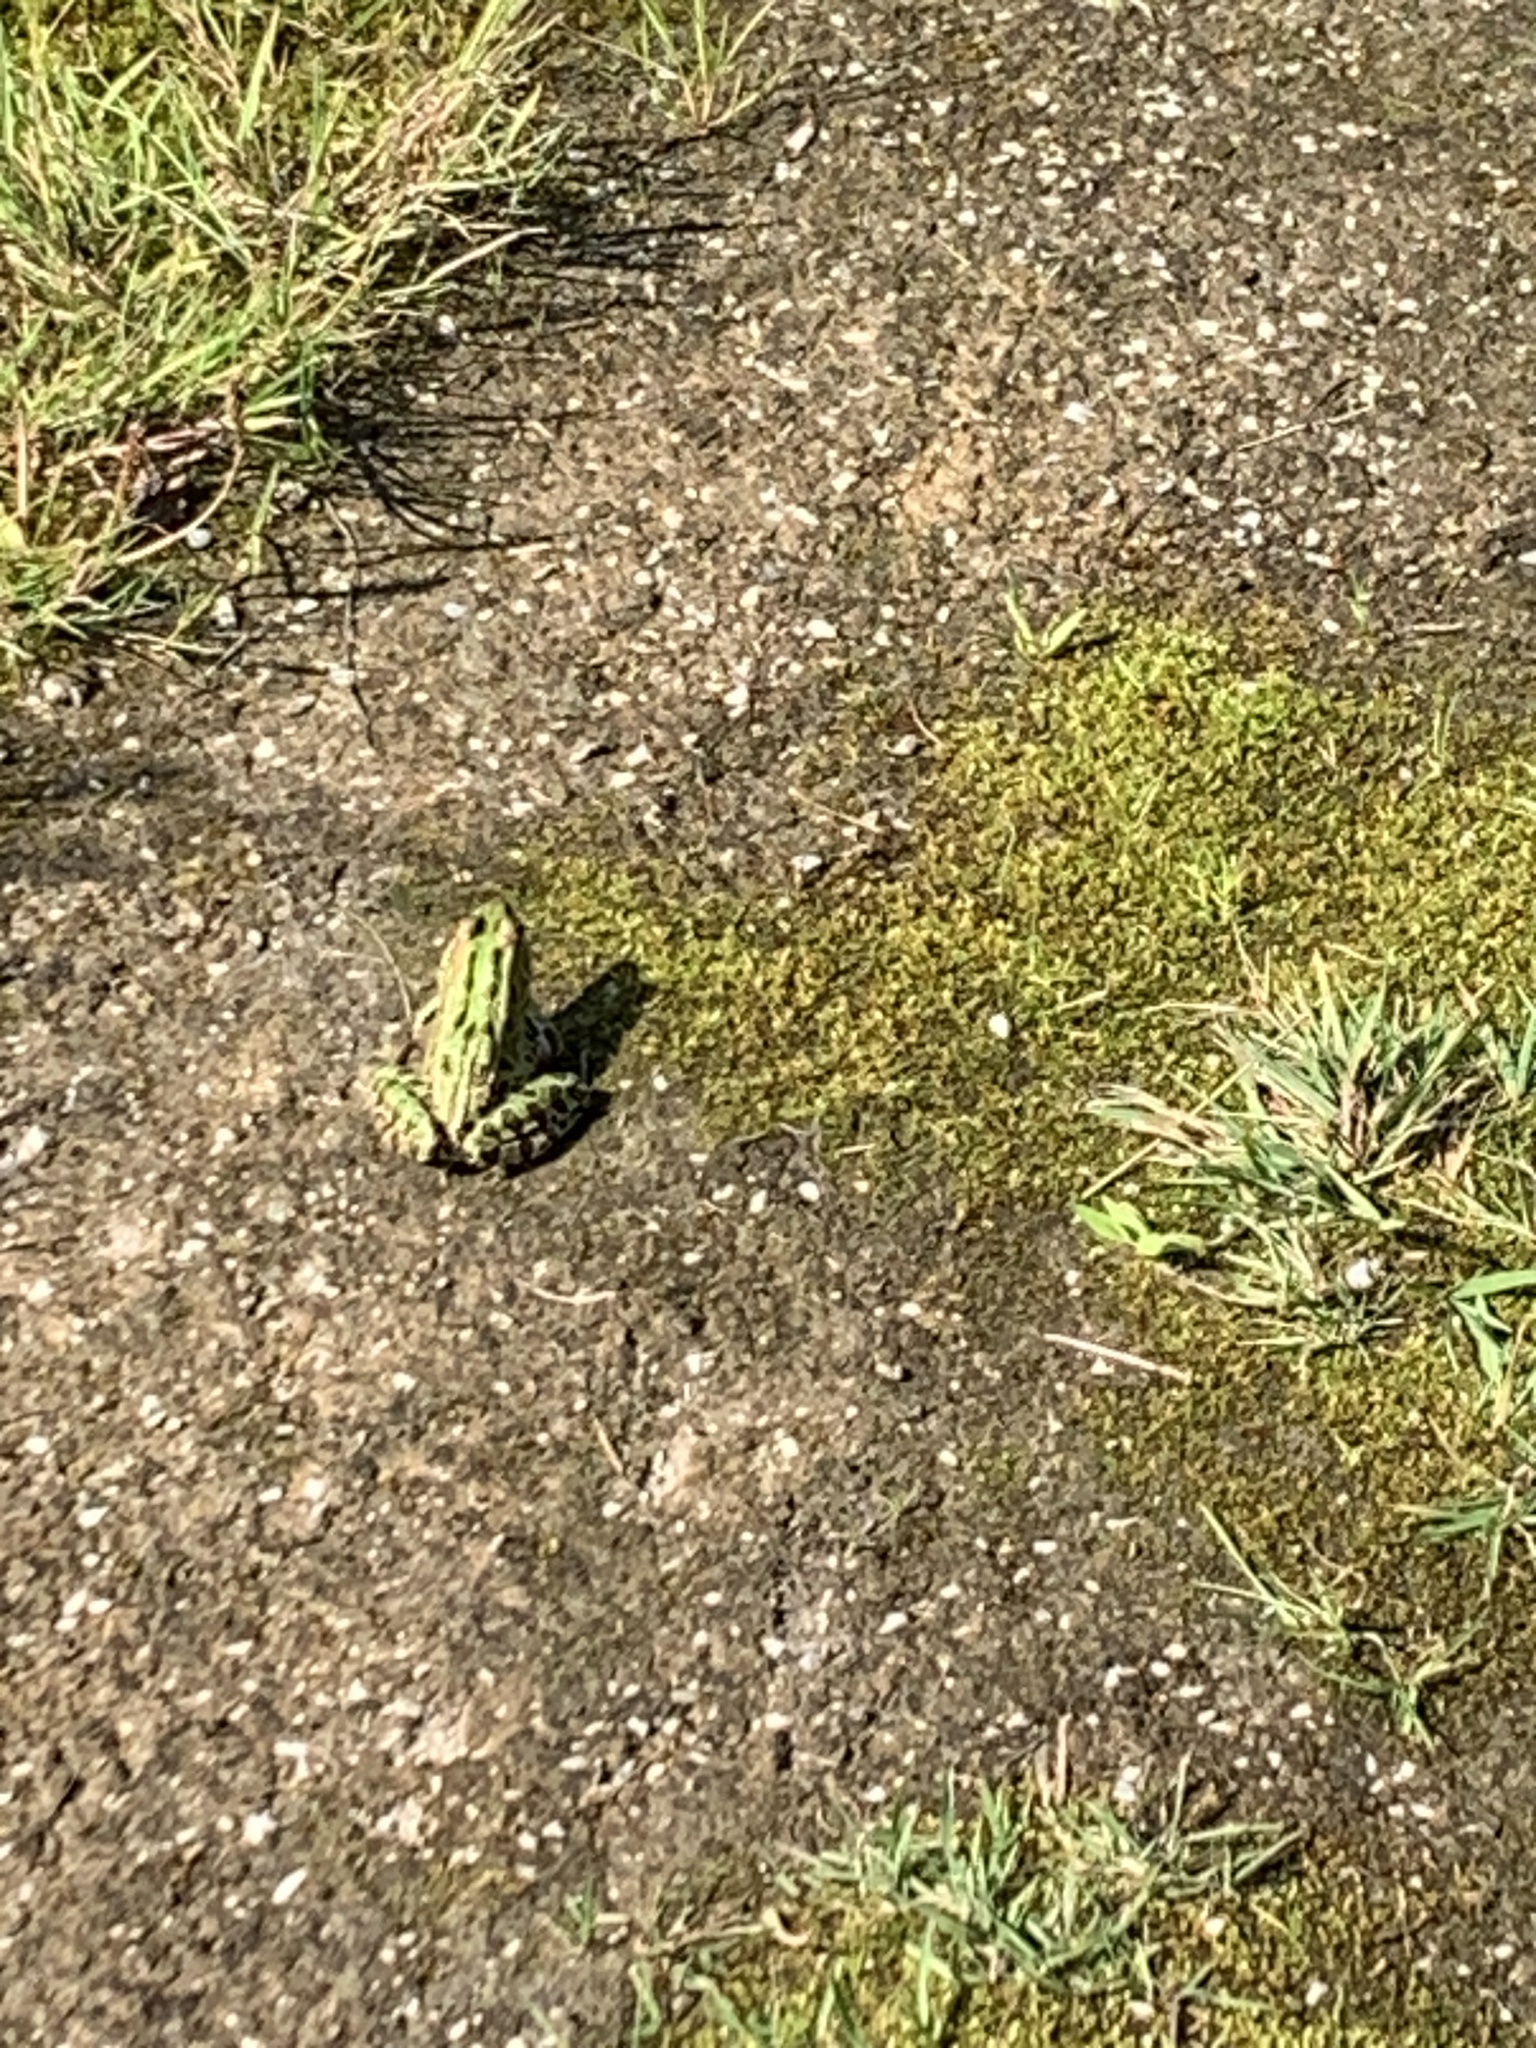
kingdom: Animalia
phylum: Chordata
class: Amphibia
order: Anura
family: Ranidae
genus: Lithobates
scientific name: Lithobates pipiens
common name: Northern leopard frog
